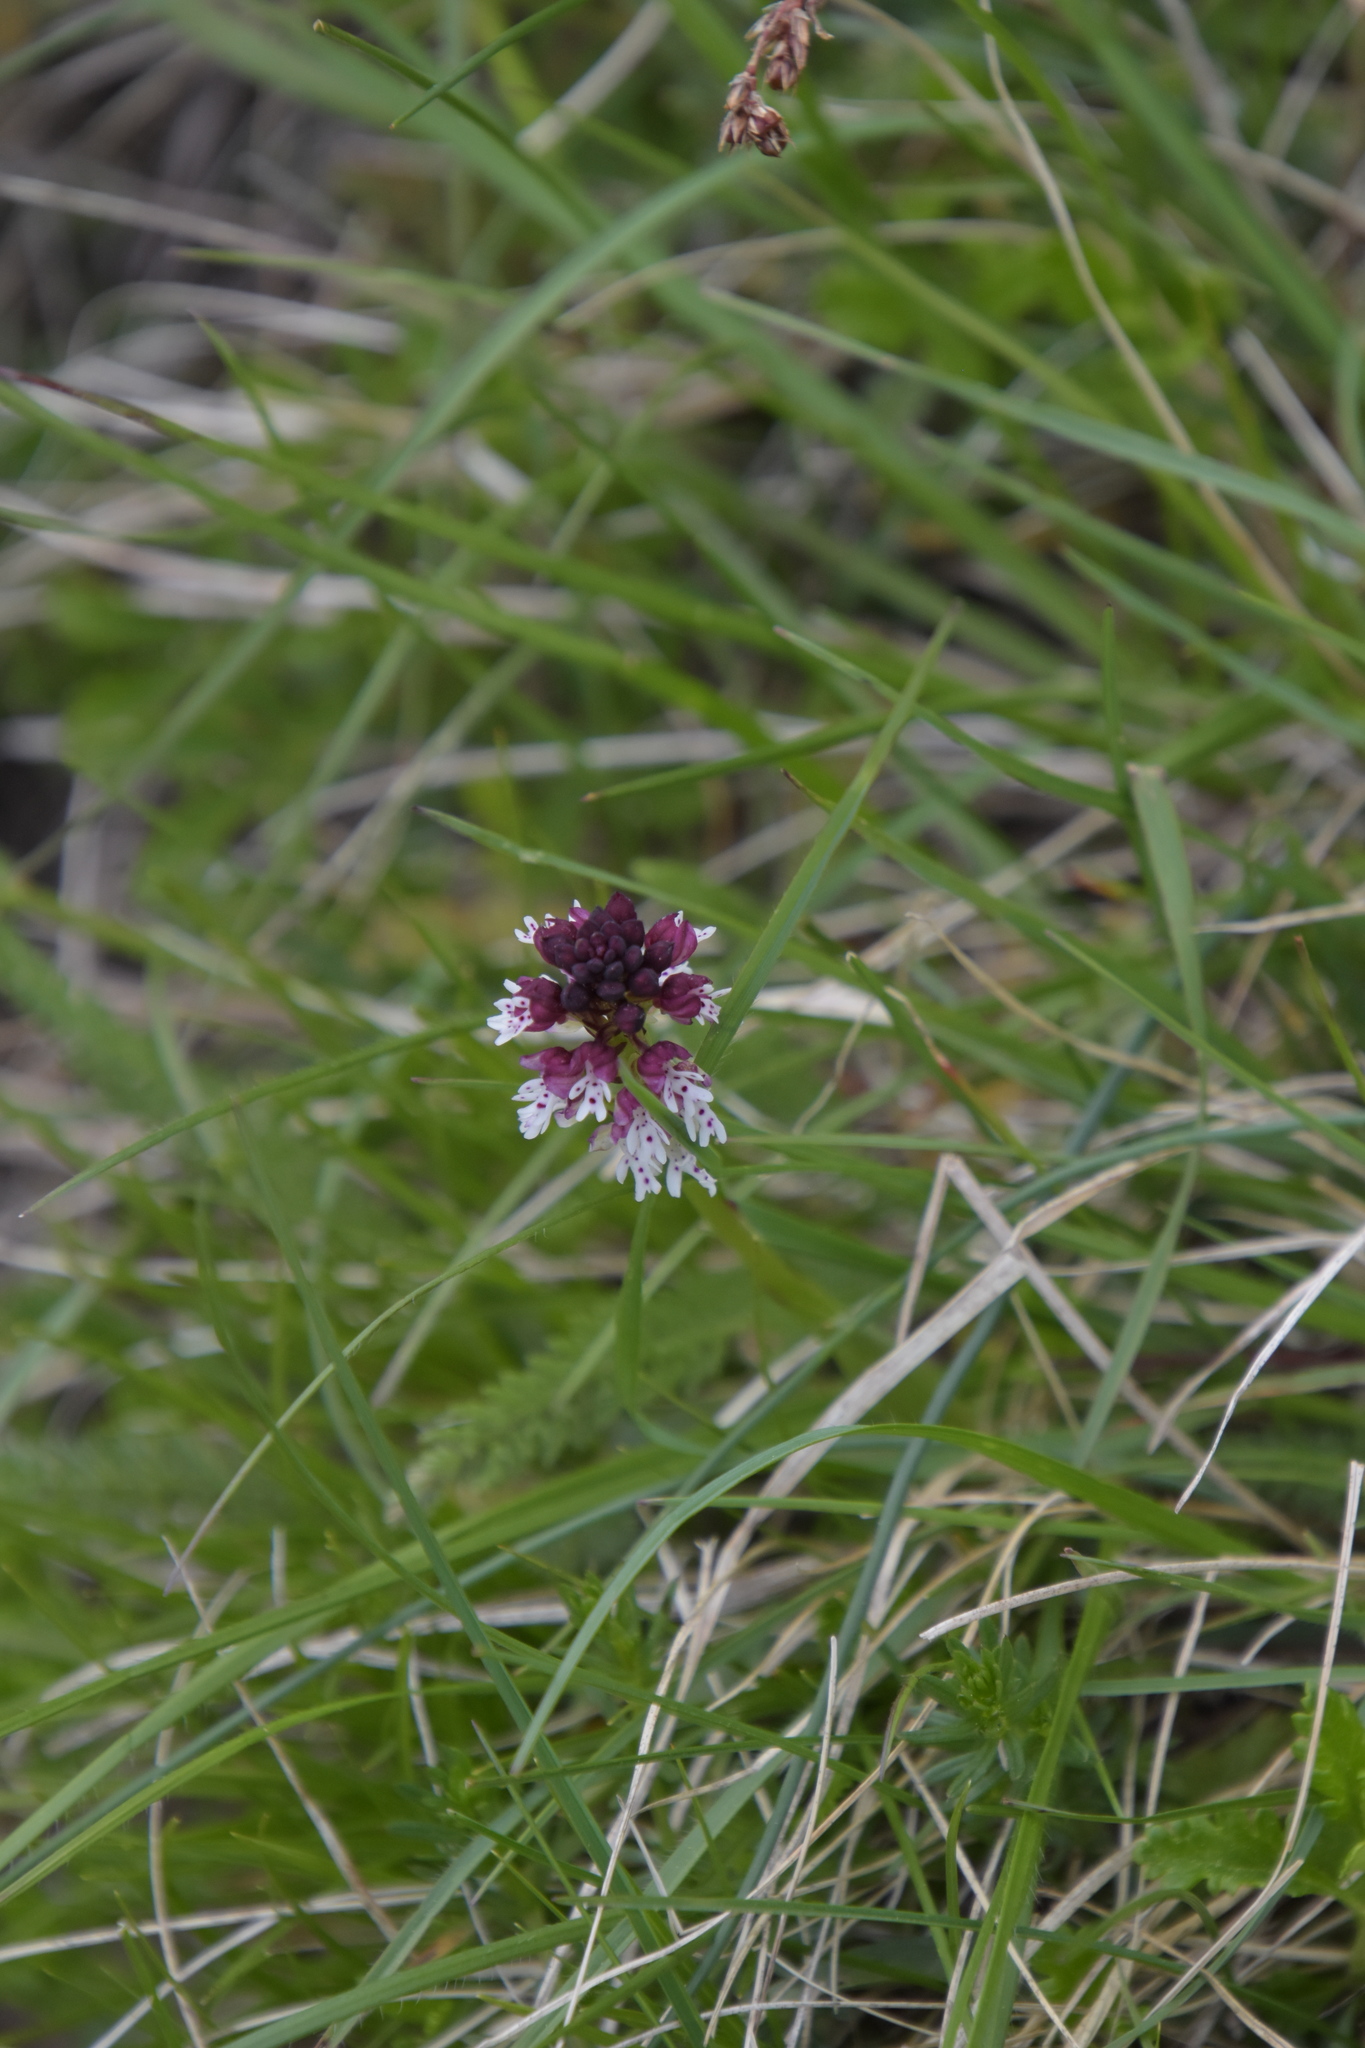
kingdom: Plantae
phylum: Tracheophyta
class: Liliopsida
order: Asparagales
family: Orchidaceae
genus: Neotinea
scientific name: Neotinea ustulata
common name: Burnt orchid
